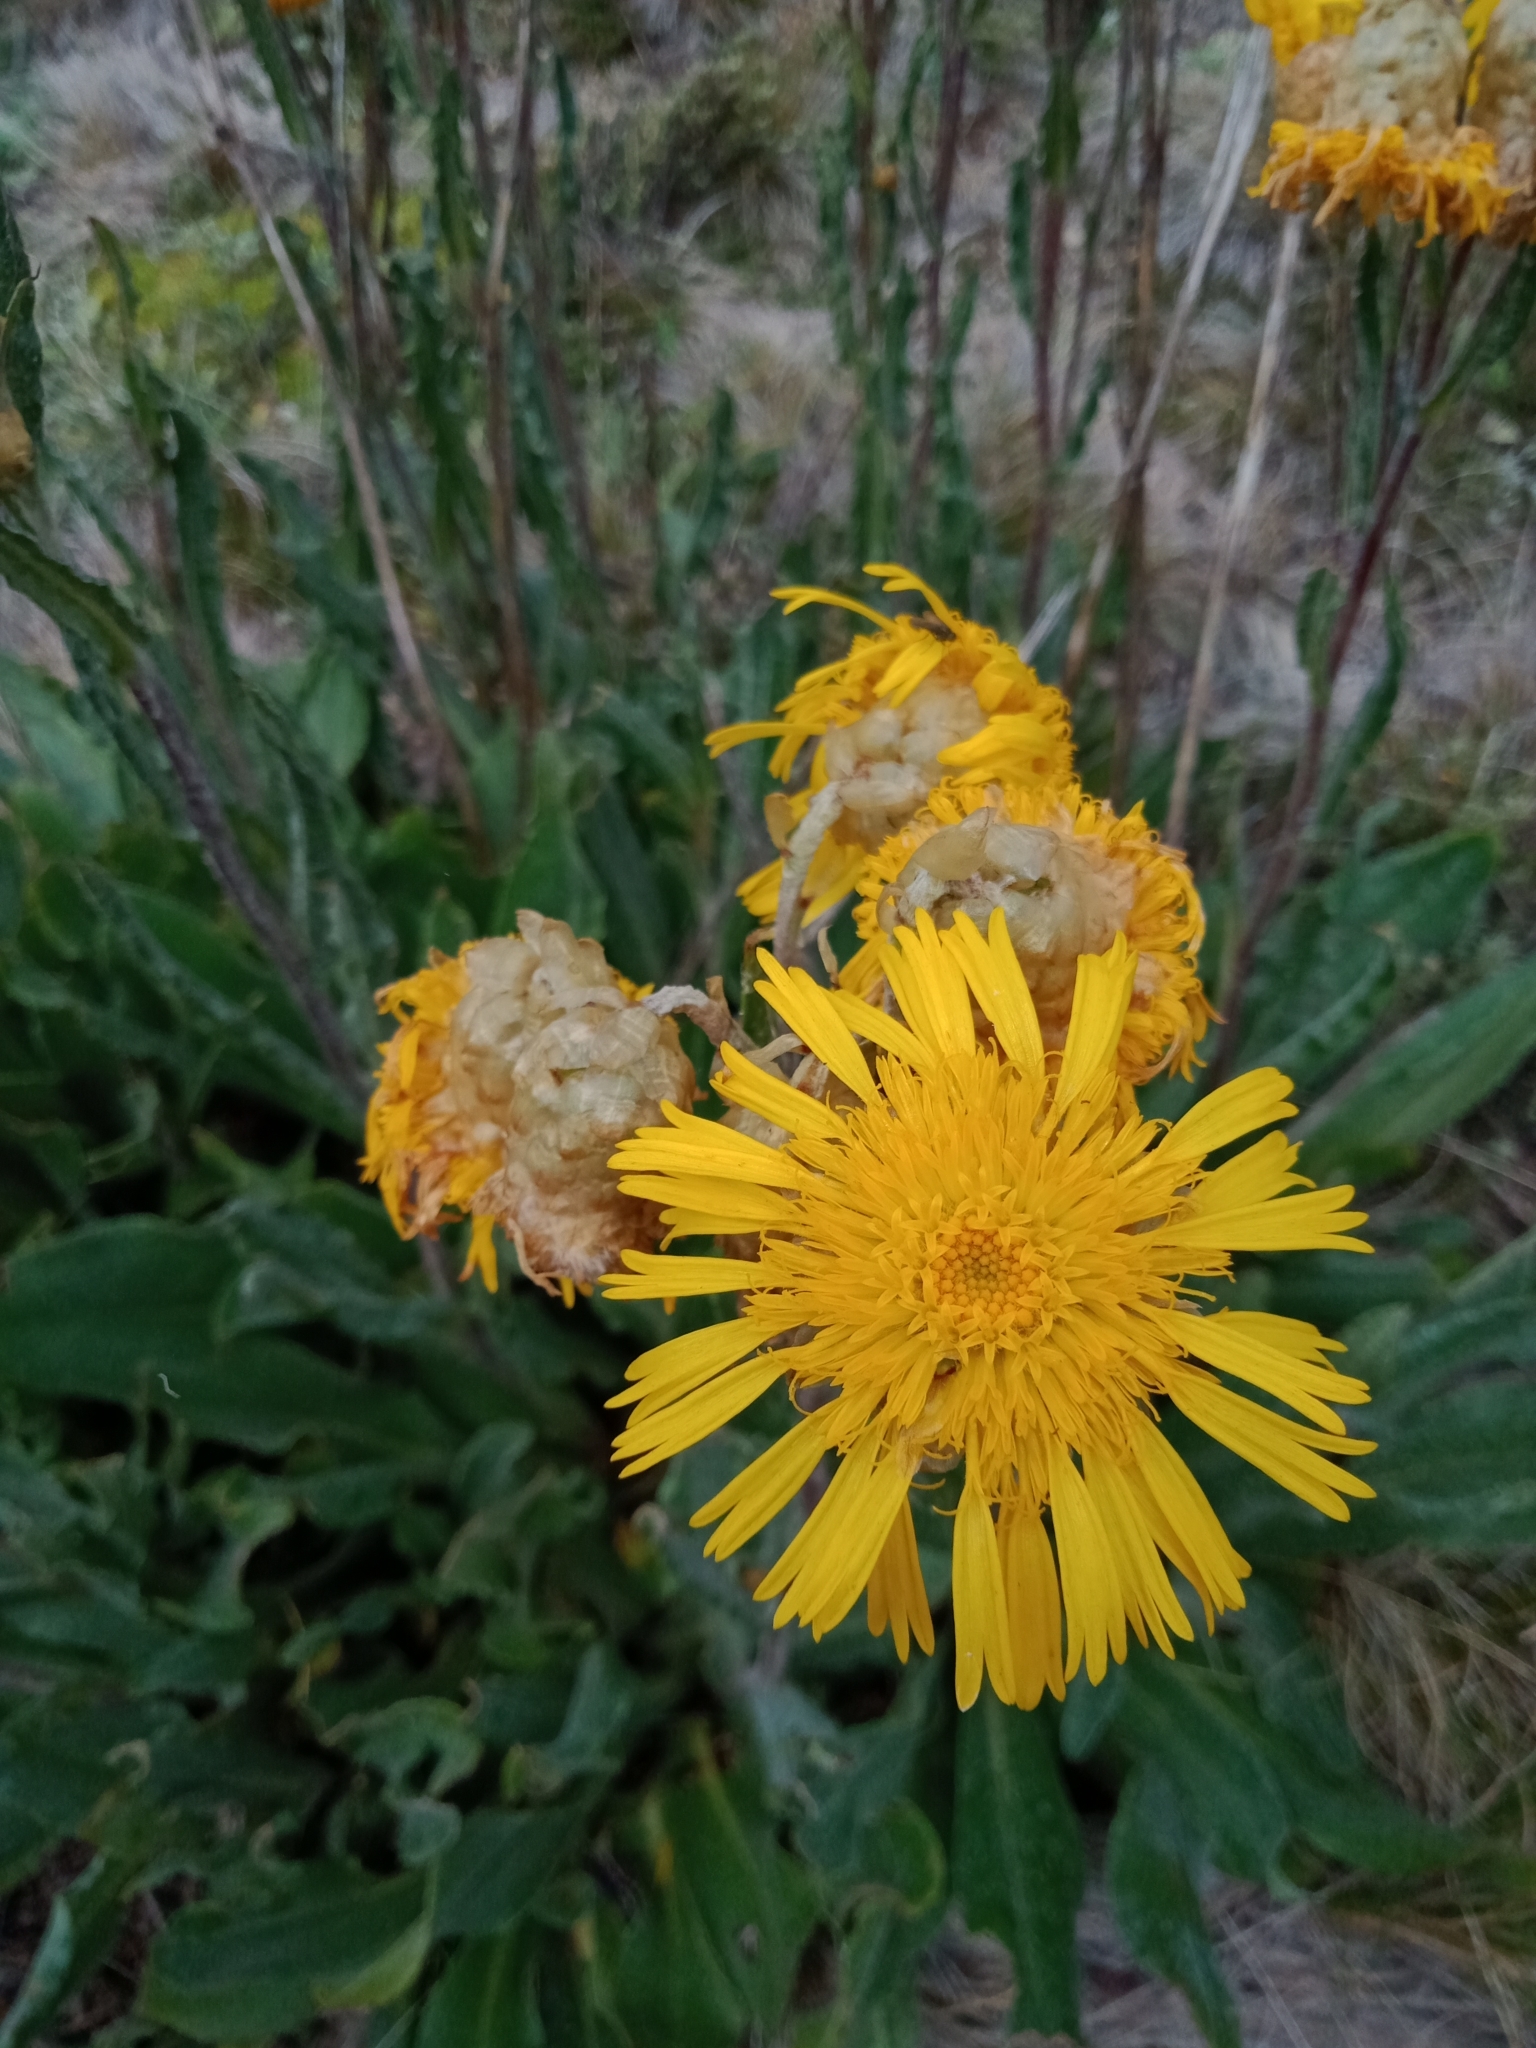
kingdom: Plantae
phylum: Tracheophyta
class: Magnoliopsida
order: Asterales
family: Asteraceae
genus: Podolepis
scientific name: Podolepis laciniata
